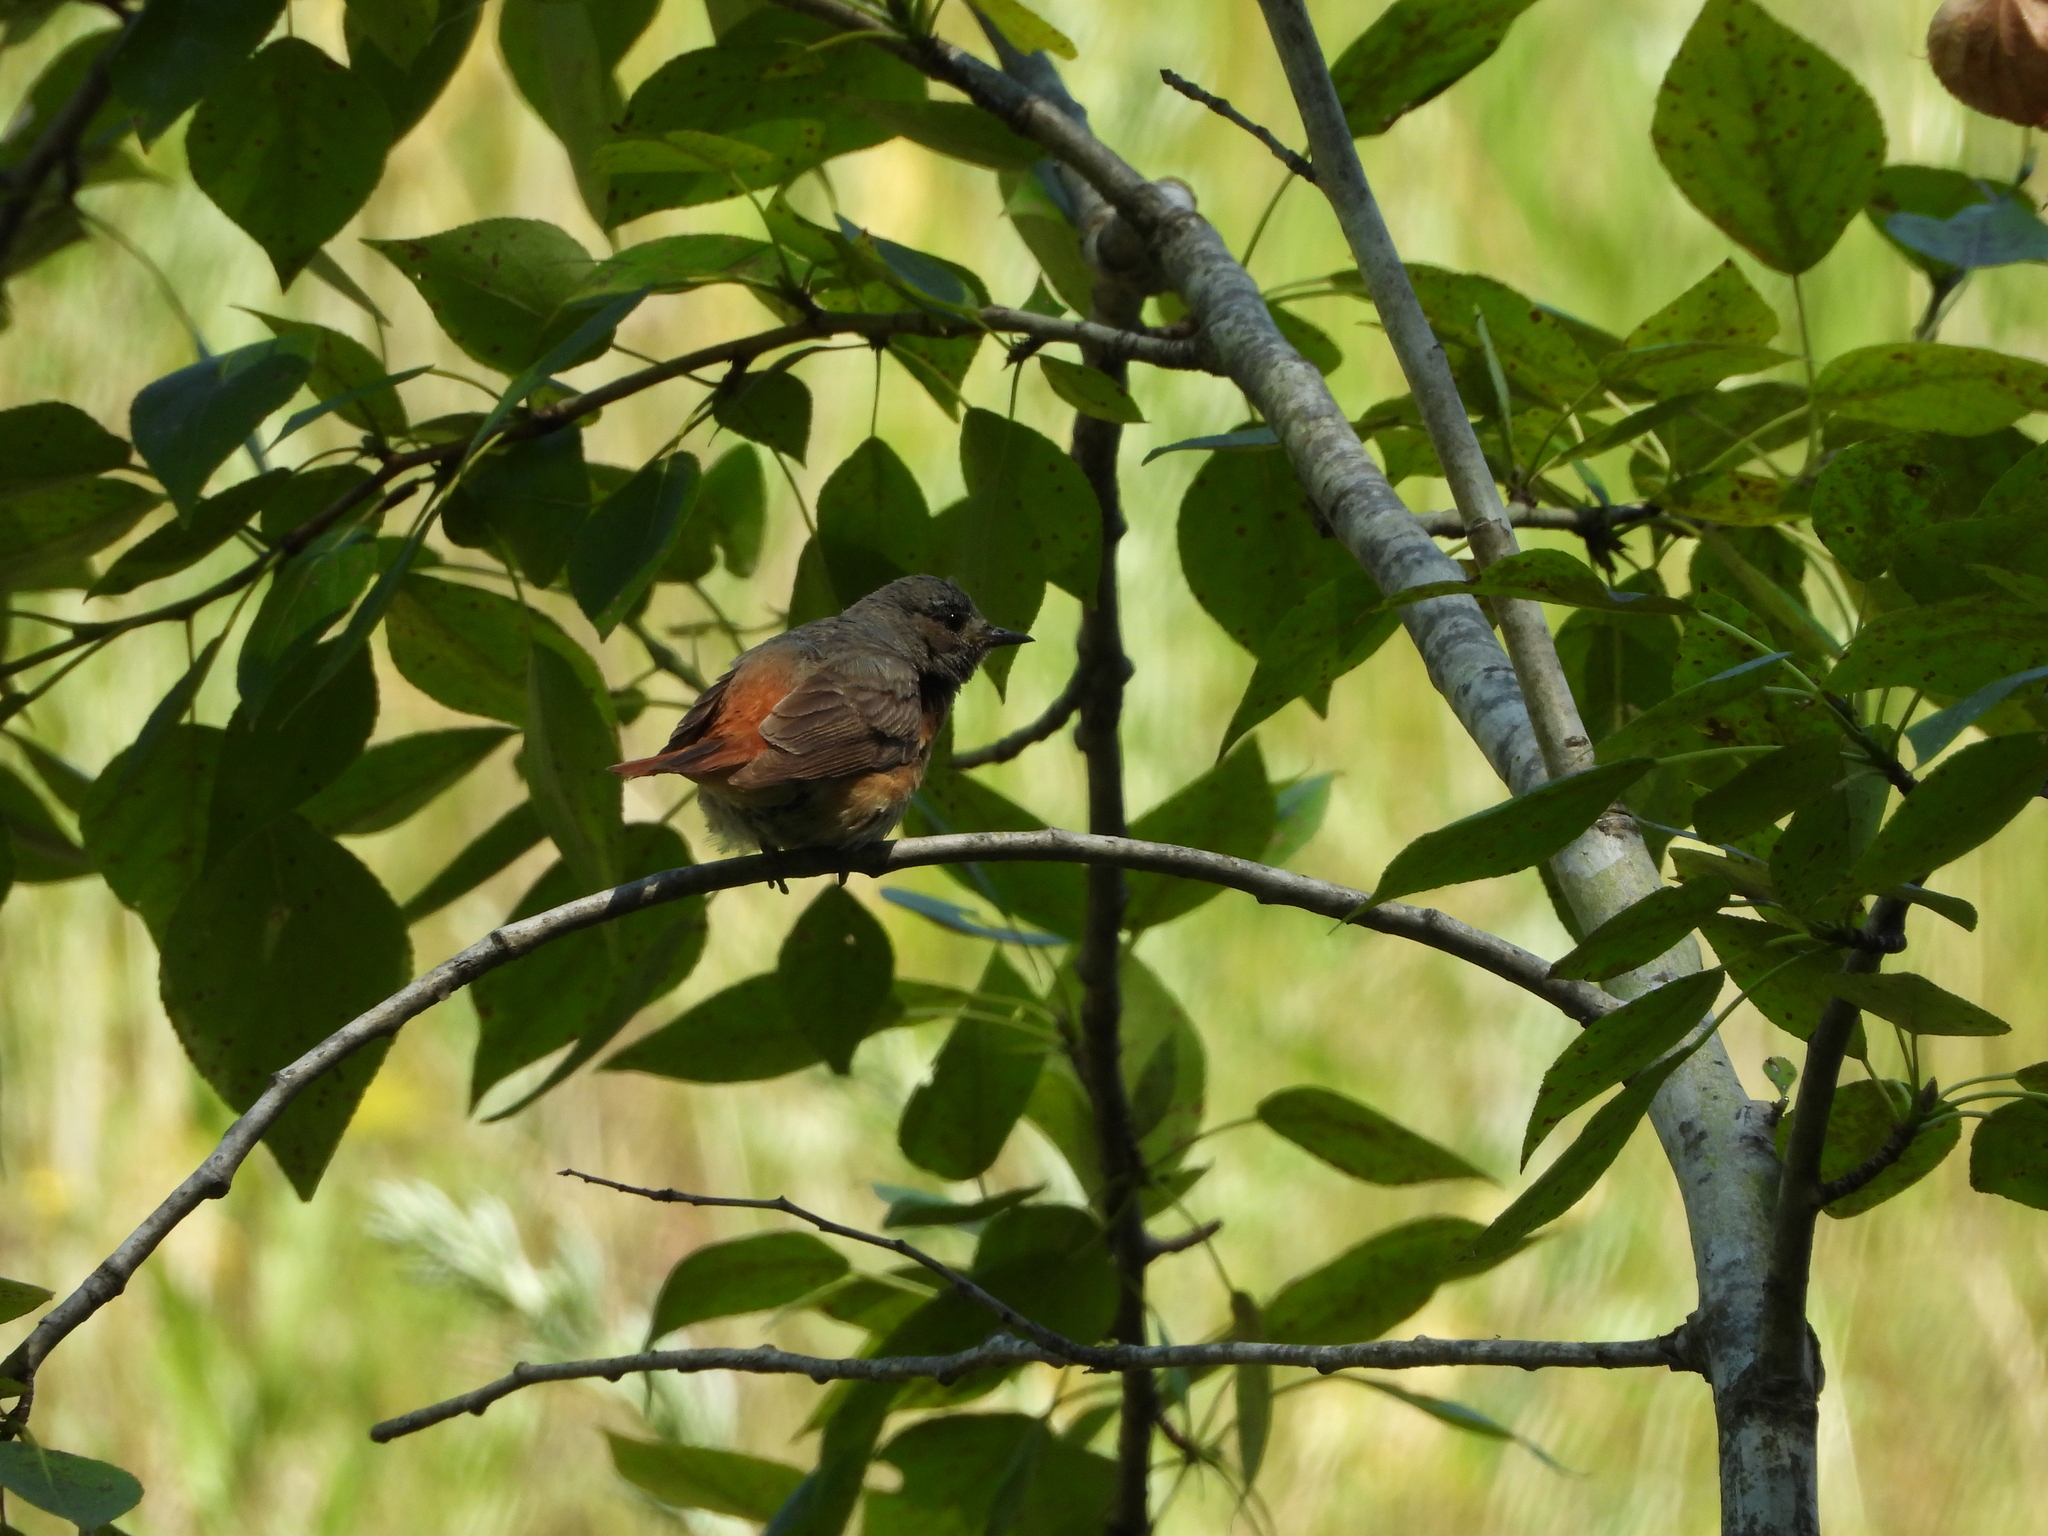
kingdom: Animalia
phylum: Chordata
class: Aves
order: Passeriformes
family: Muscicapidae
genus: Phoenicurus
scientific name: Phoenicurus phoenicurus
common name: Common redstart
